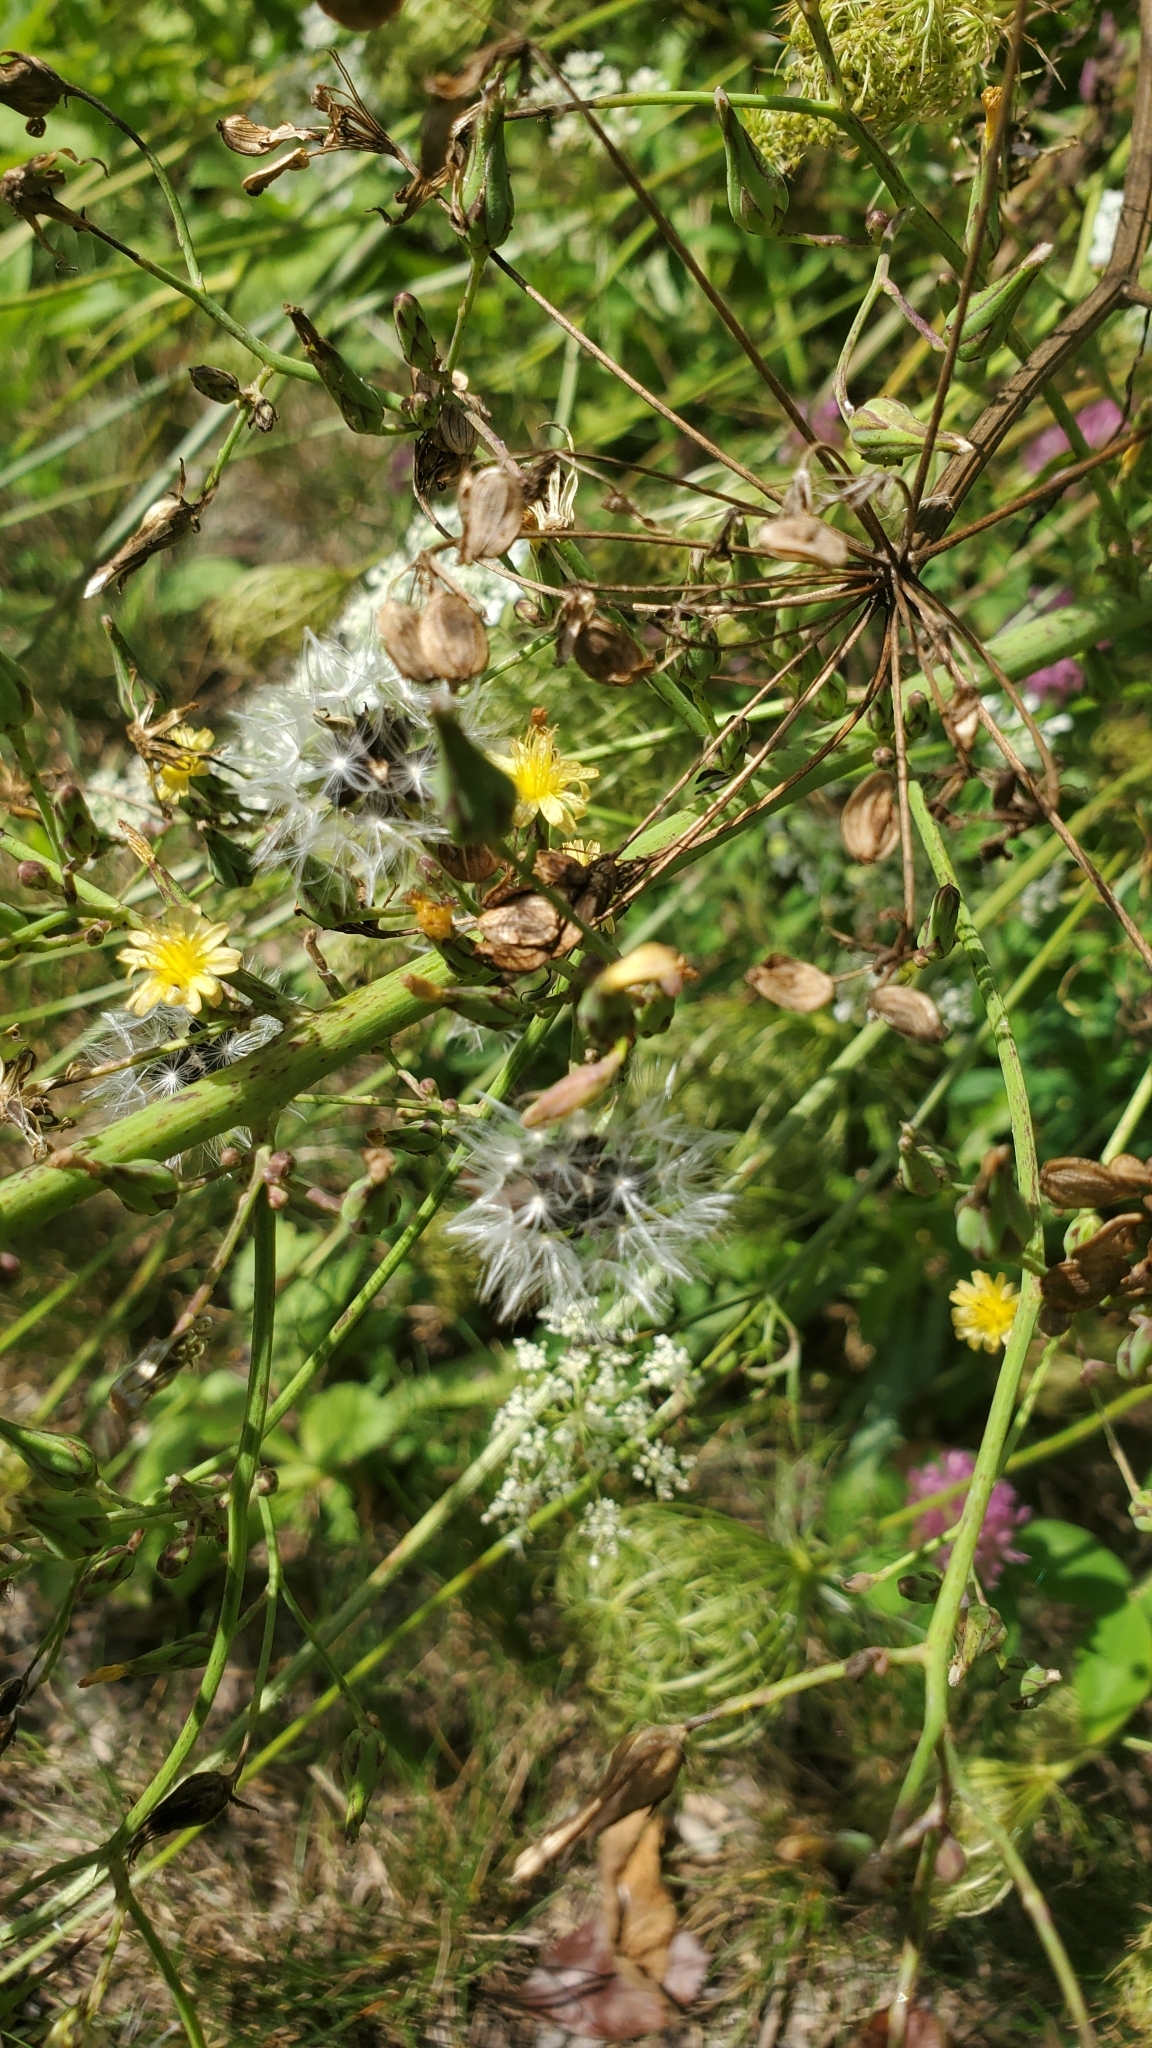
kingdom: Plantae
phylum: Tracheophyta
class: Magnoliopsida
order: Asterales
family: Asteraceae
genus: Lactuca
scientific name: Lactuca canadensis
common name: Canada lettuce
